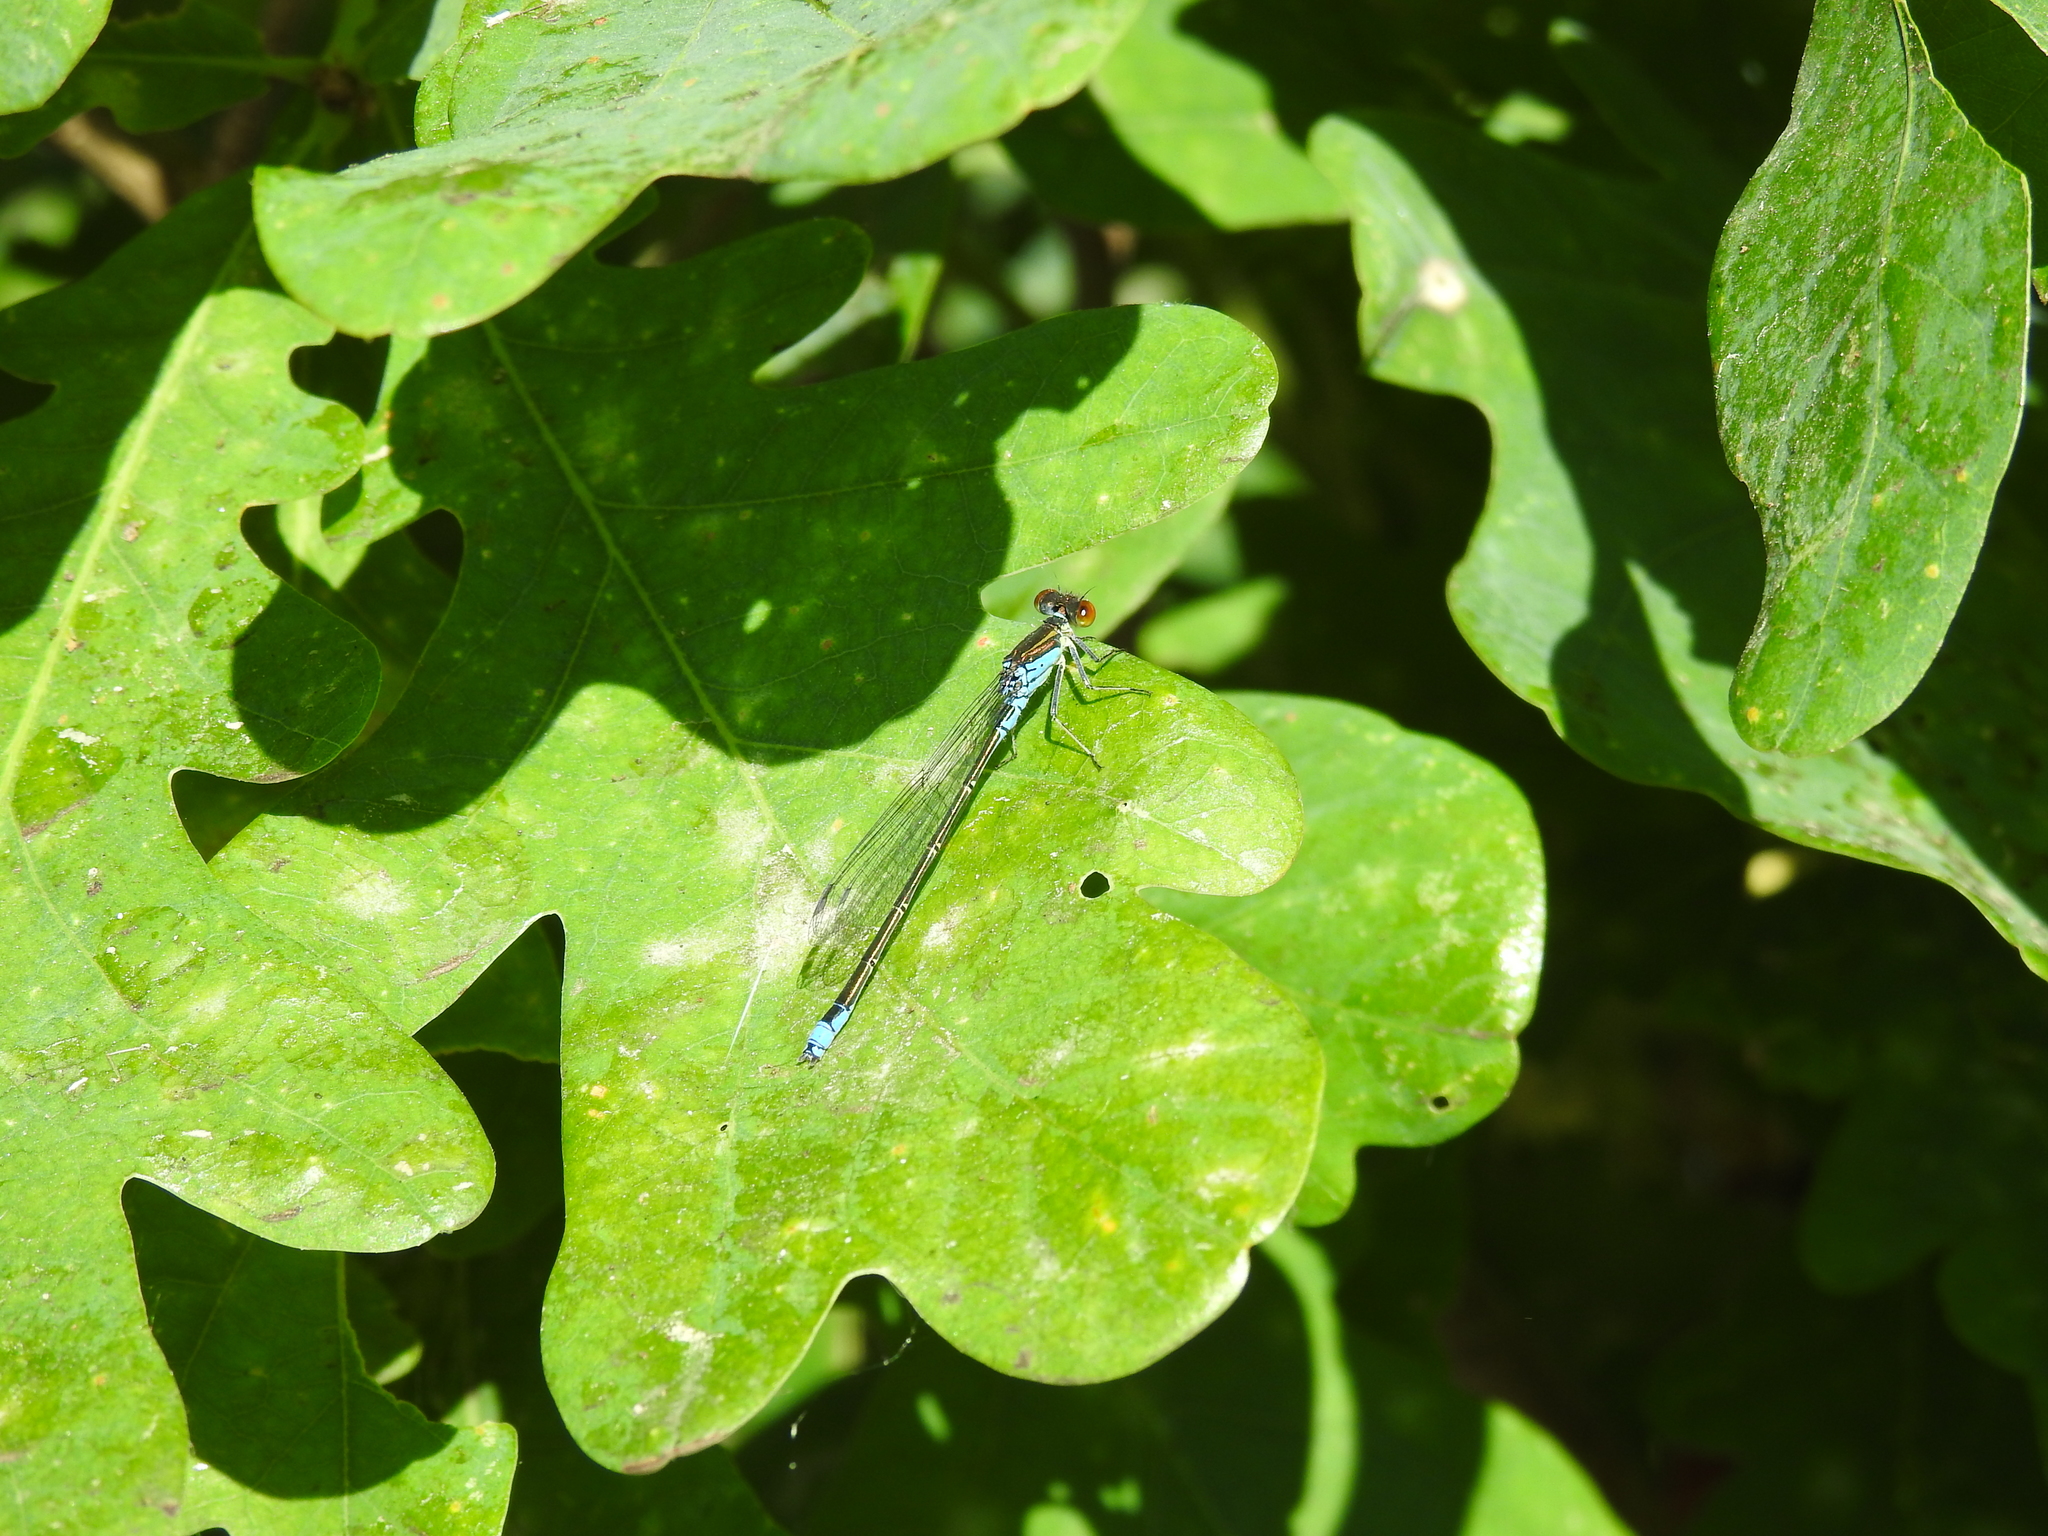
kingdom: Animalia
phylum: Arthropoda
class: Insecta
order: Odonata
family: Coenagrionidae
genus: Erythromma
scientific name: Erythromma viridulum
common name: Small red-eyed damselfly
